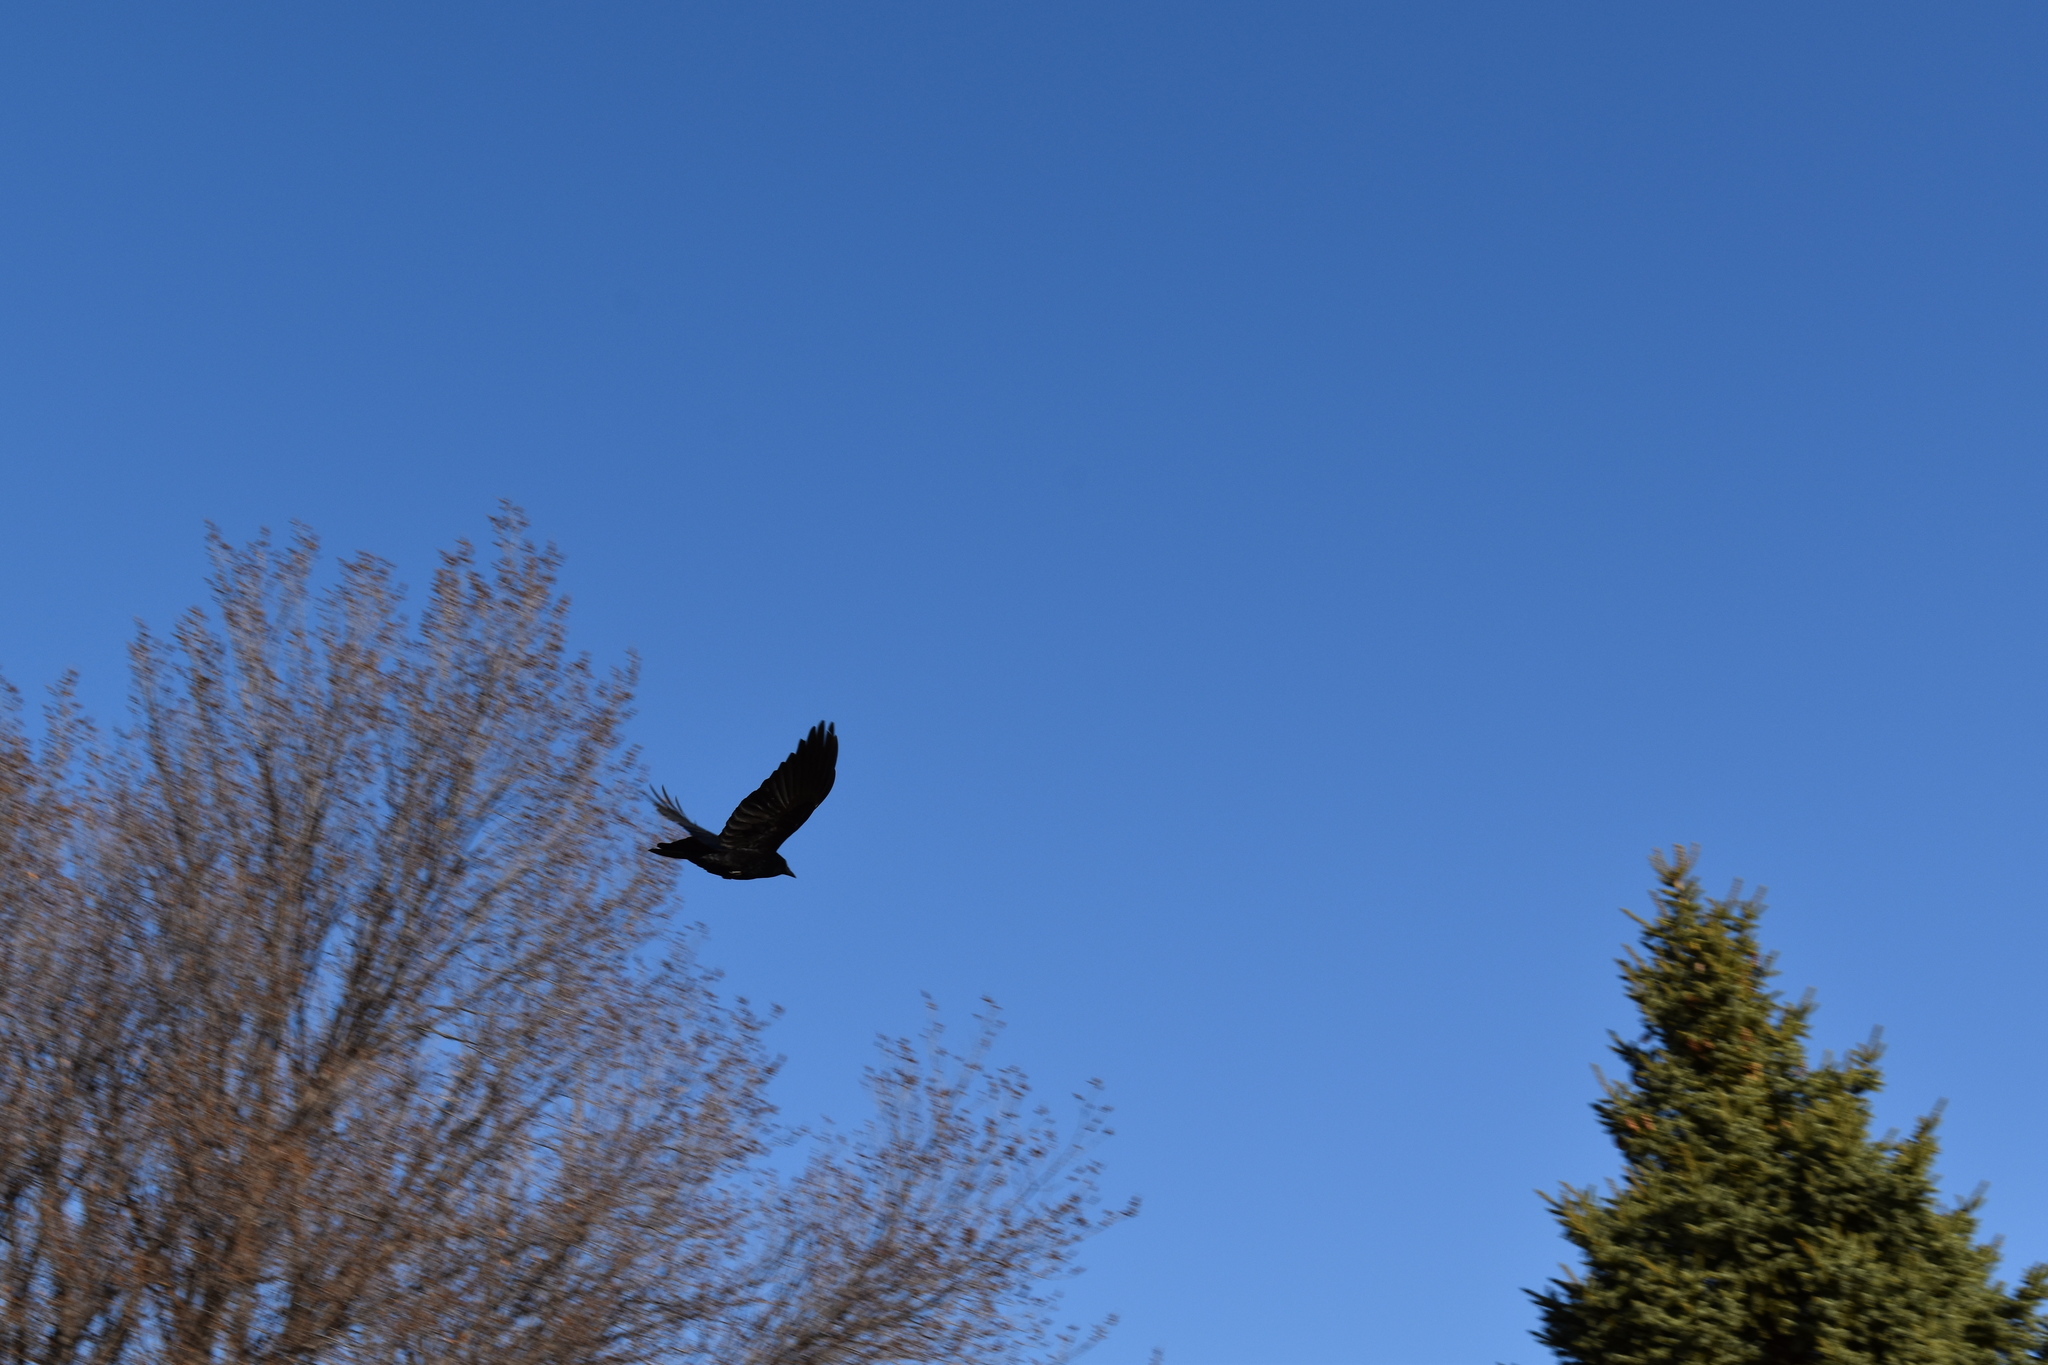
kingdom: Animalia
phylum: Chordata
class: Aves
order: Passeriformes
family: Corvidae
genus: Corvus
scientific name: Corvus brachyrhynchos
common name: American crow
